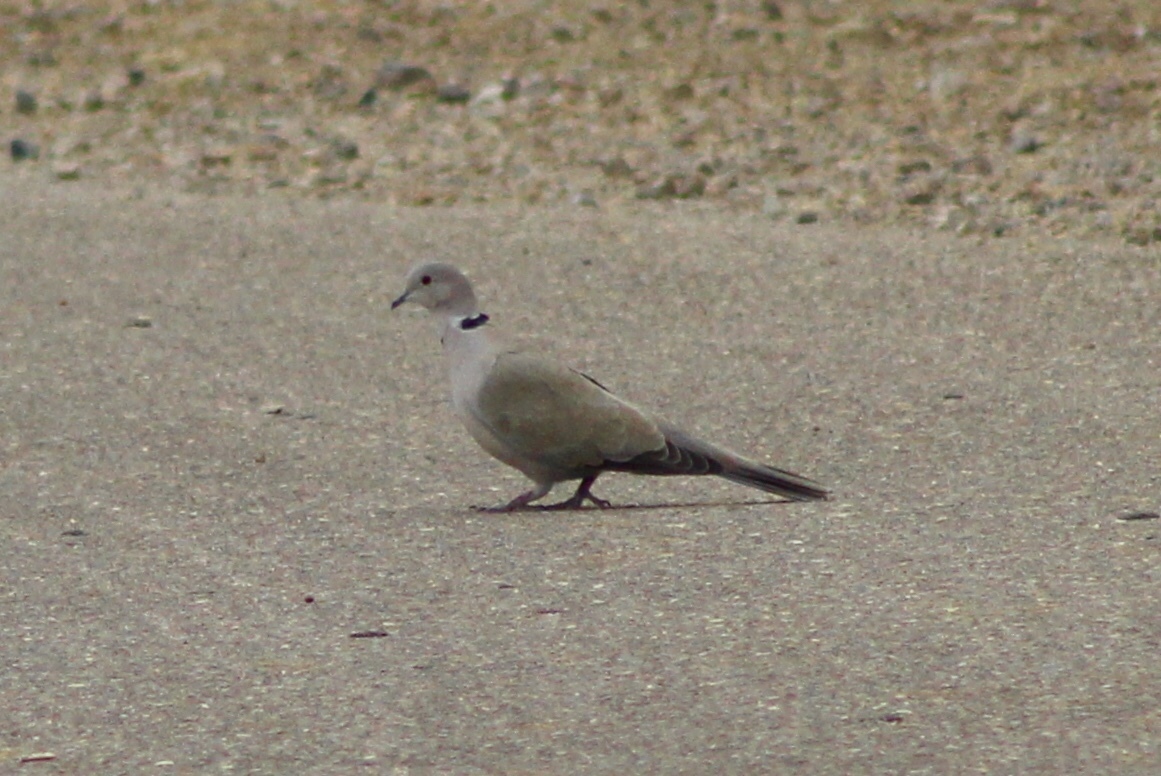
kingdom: Animalia
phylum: Chordata
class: Aves
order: Columbiformes
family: Columbidae
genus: Streptopelia
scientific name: Streptopelia decaocto
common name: Eurasian collared dove
